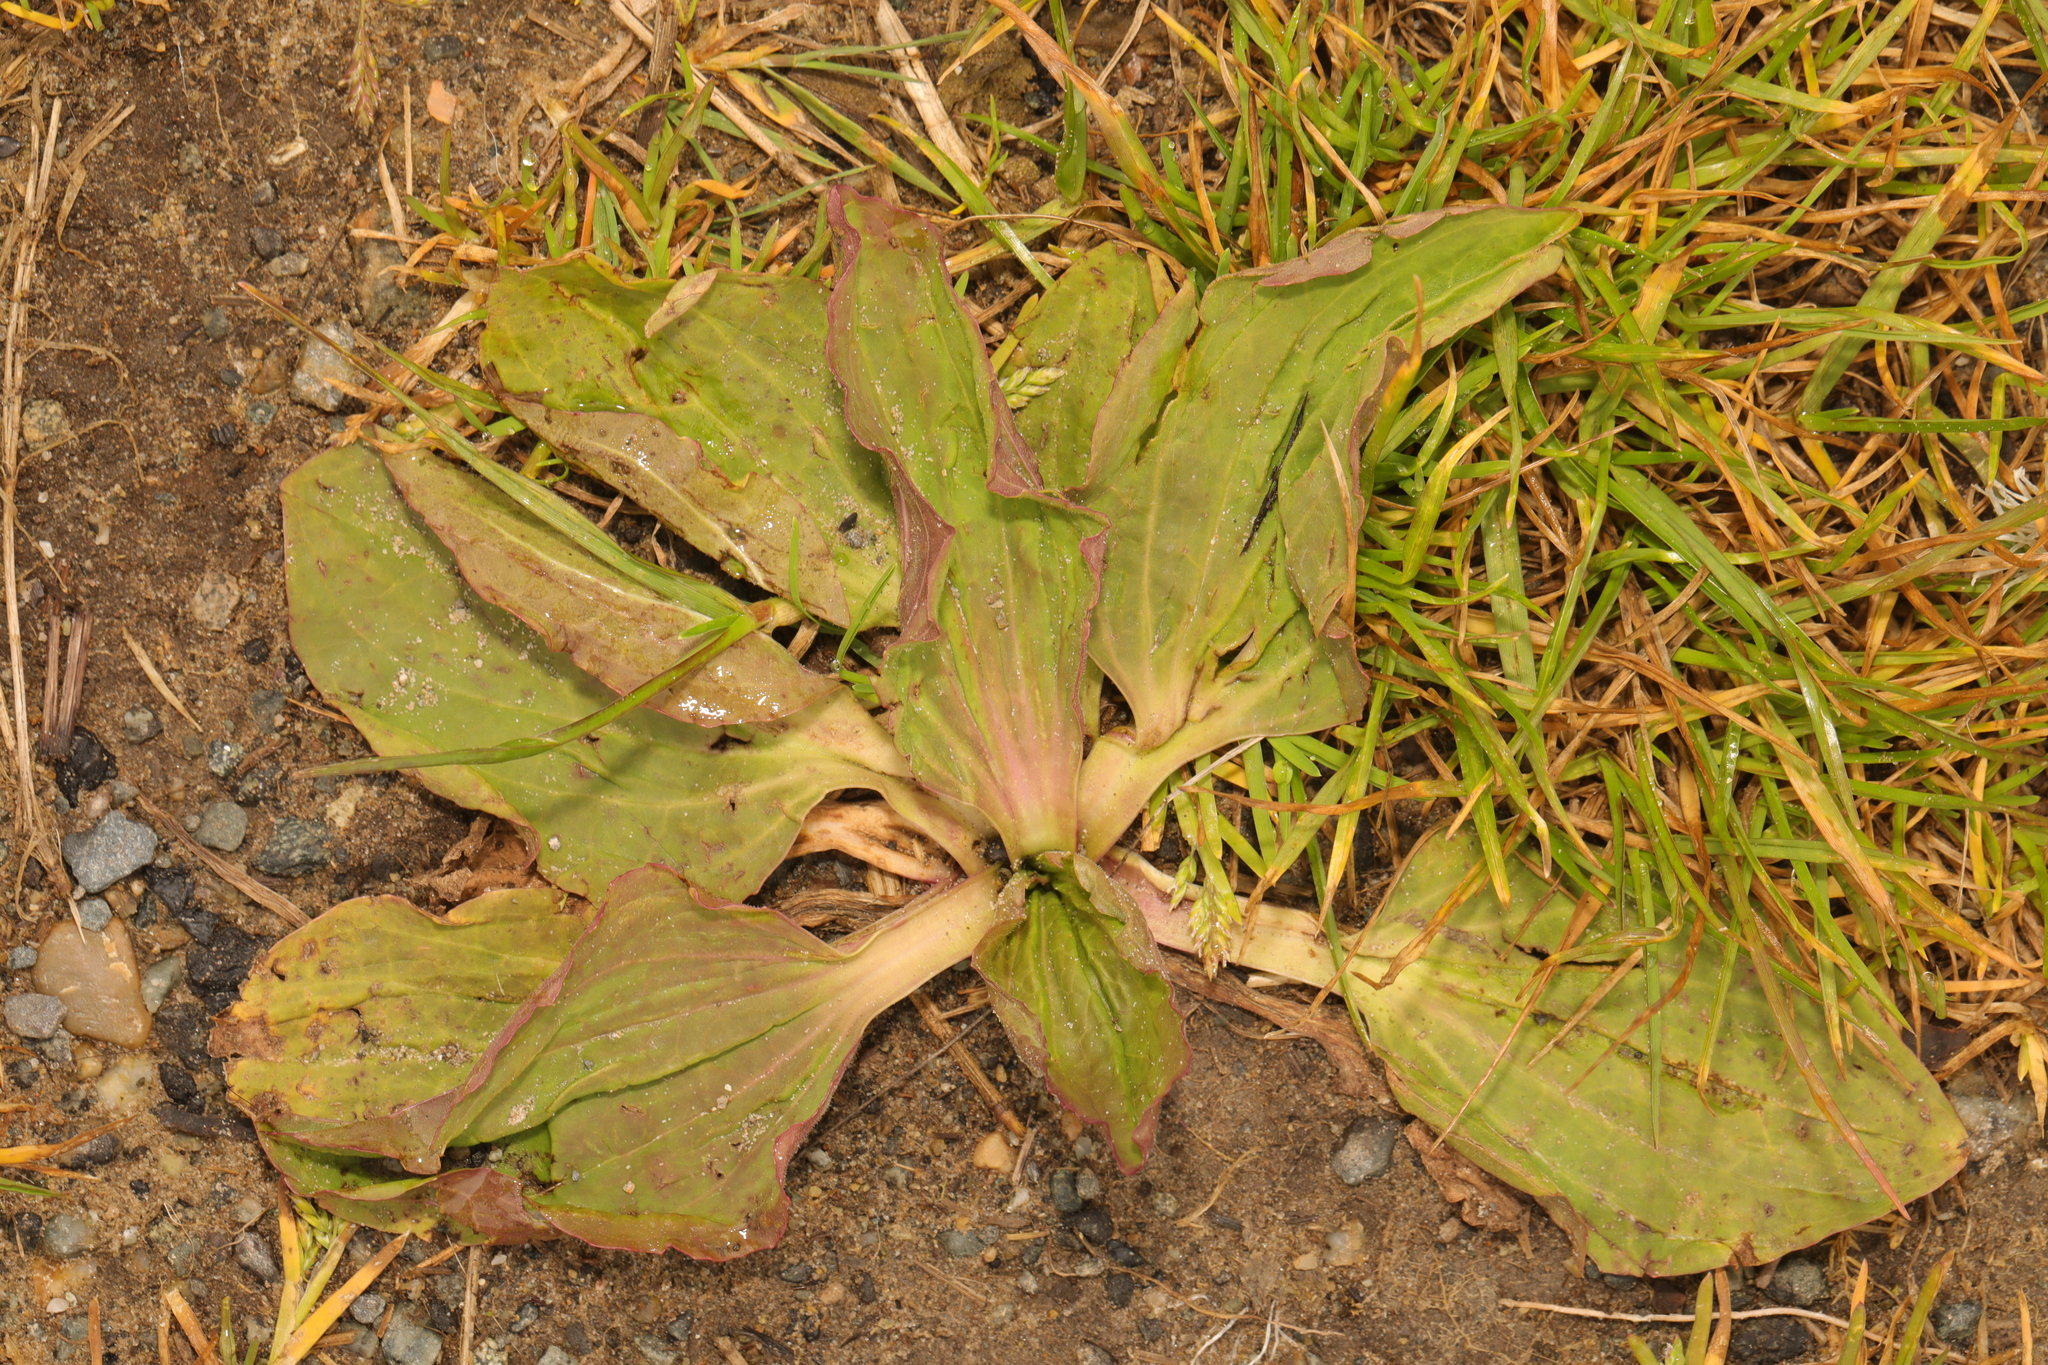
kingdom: Plantae
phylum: Tracheophyta
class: Magnoliopsida
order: Lamiales
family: Plantaginaceae
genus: Plantago
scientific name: Plantago major
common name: Common plantain
